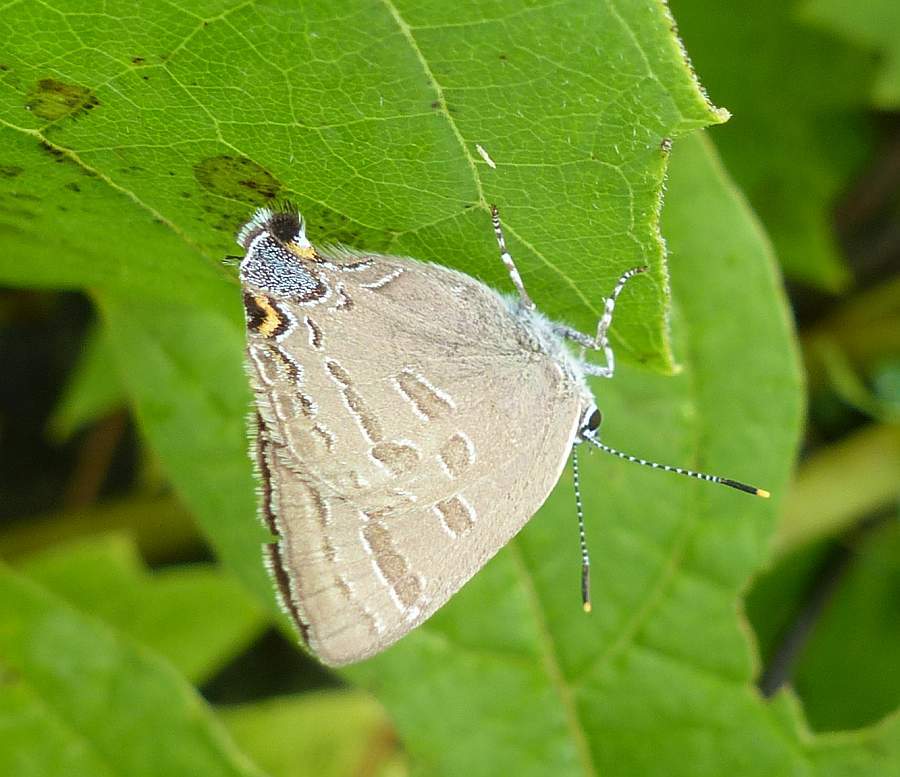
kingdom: Animalia
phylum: Arthropoda
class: Insecta
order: Lepidoptera
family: Lycaenidae
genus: Strymon
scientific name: Strymon caryaevorus
